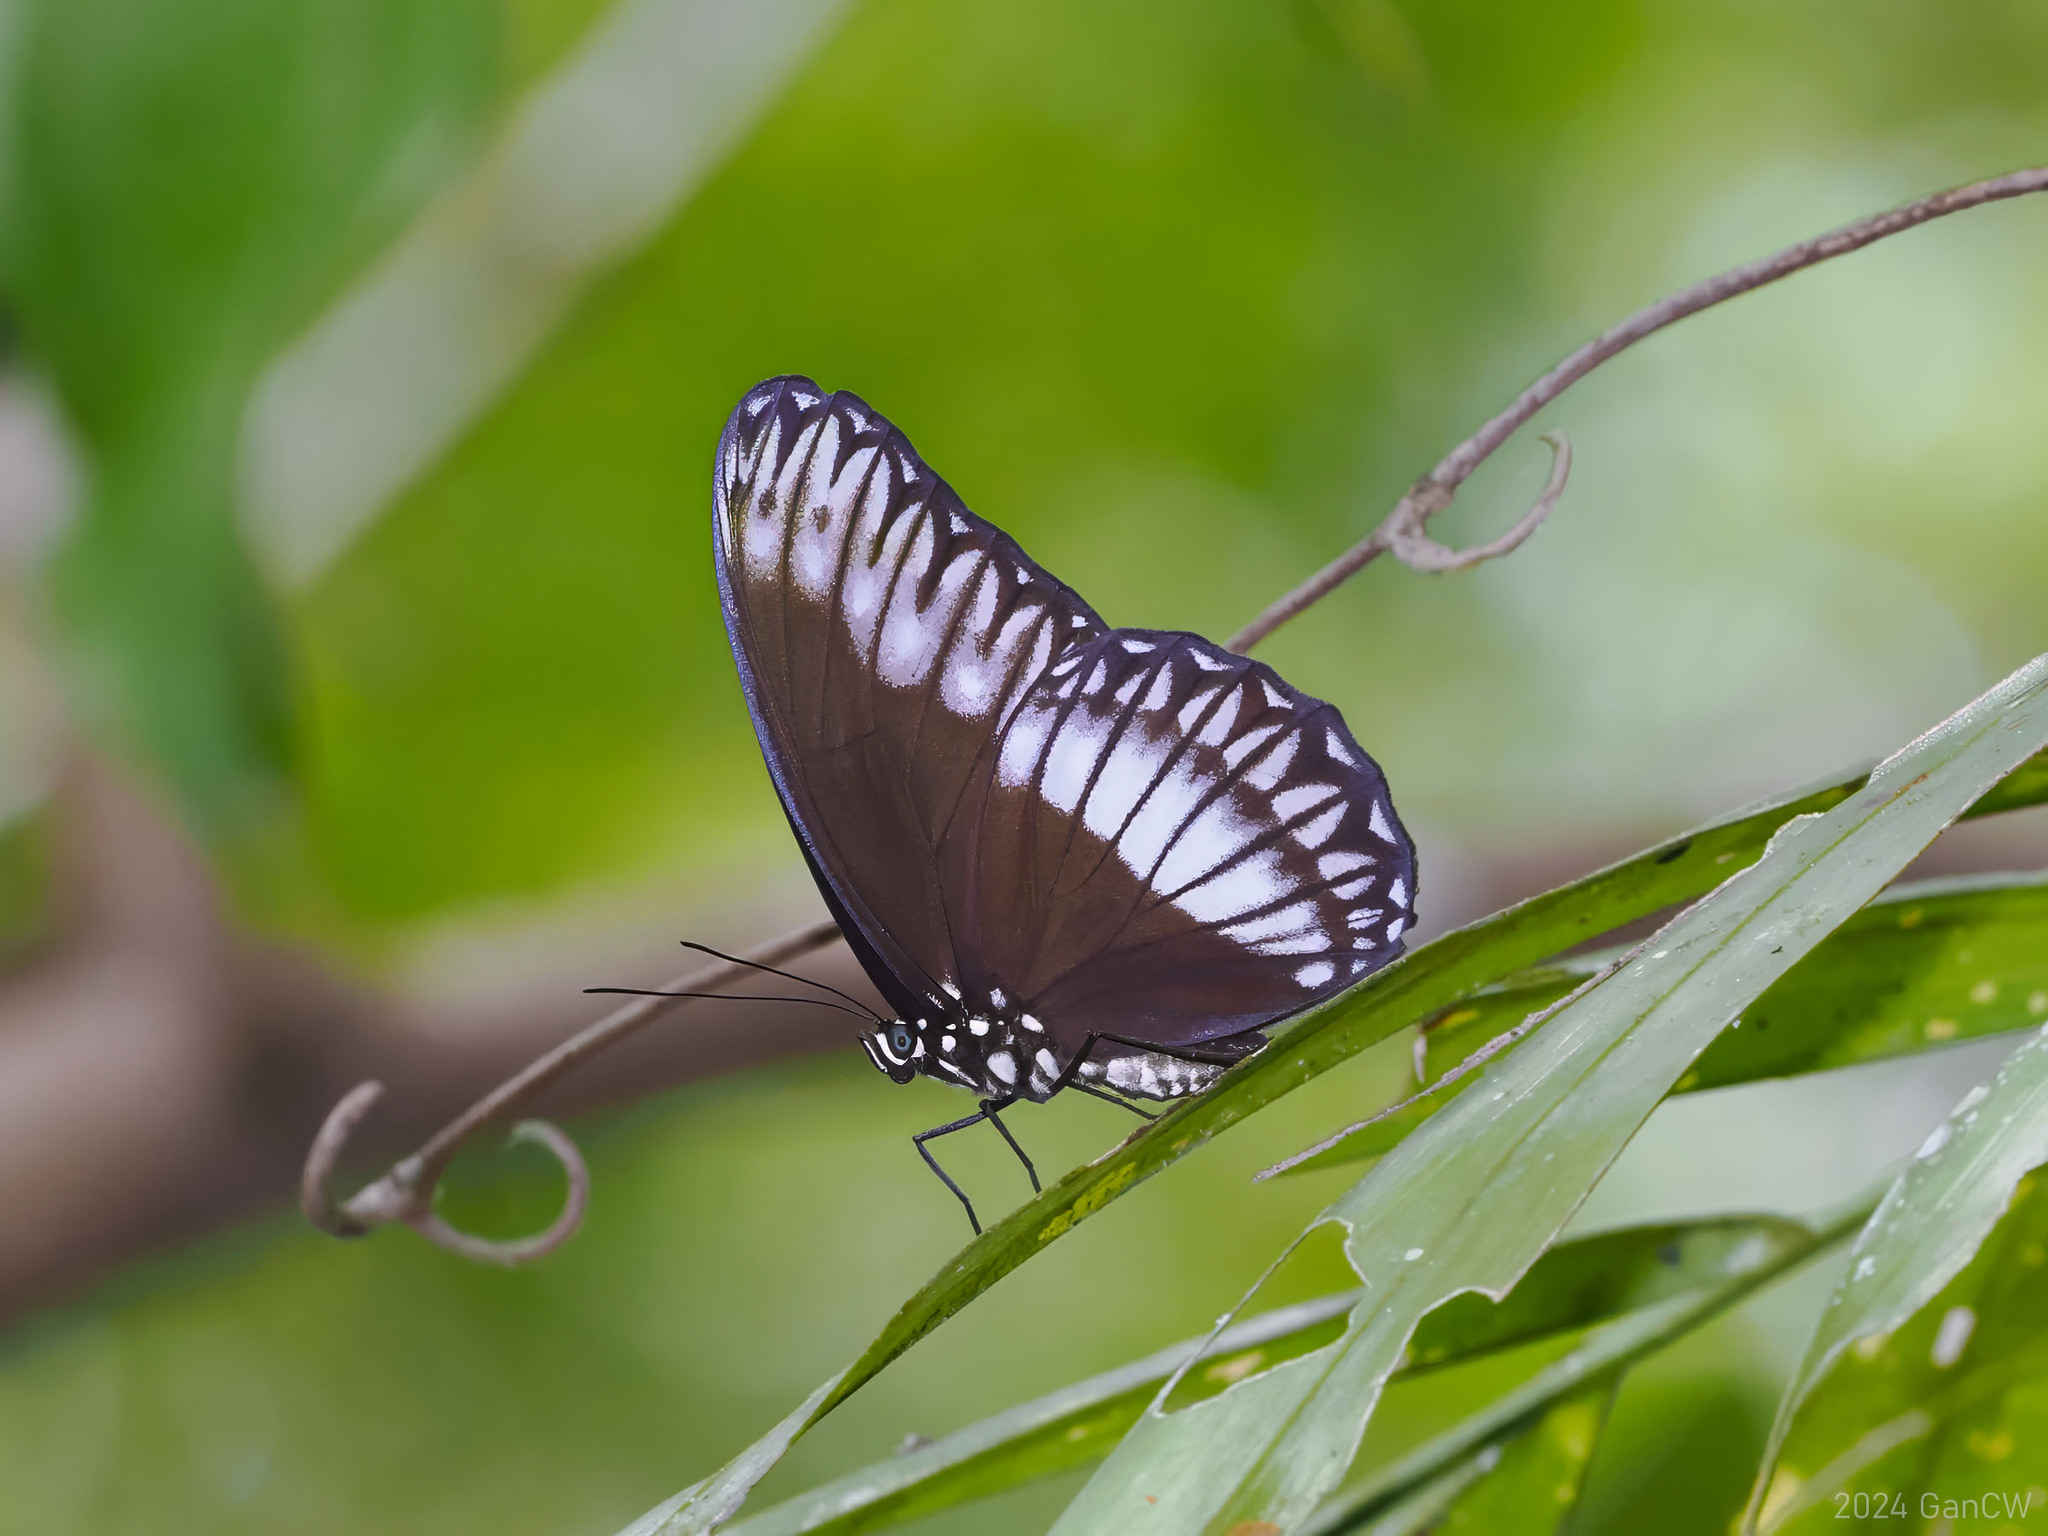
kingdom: Animalia
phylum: Arthropoda
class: Insecta
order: Lepidoptera
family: Nymphalidae
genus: Zethera
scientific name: Zethera pimplea
